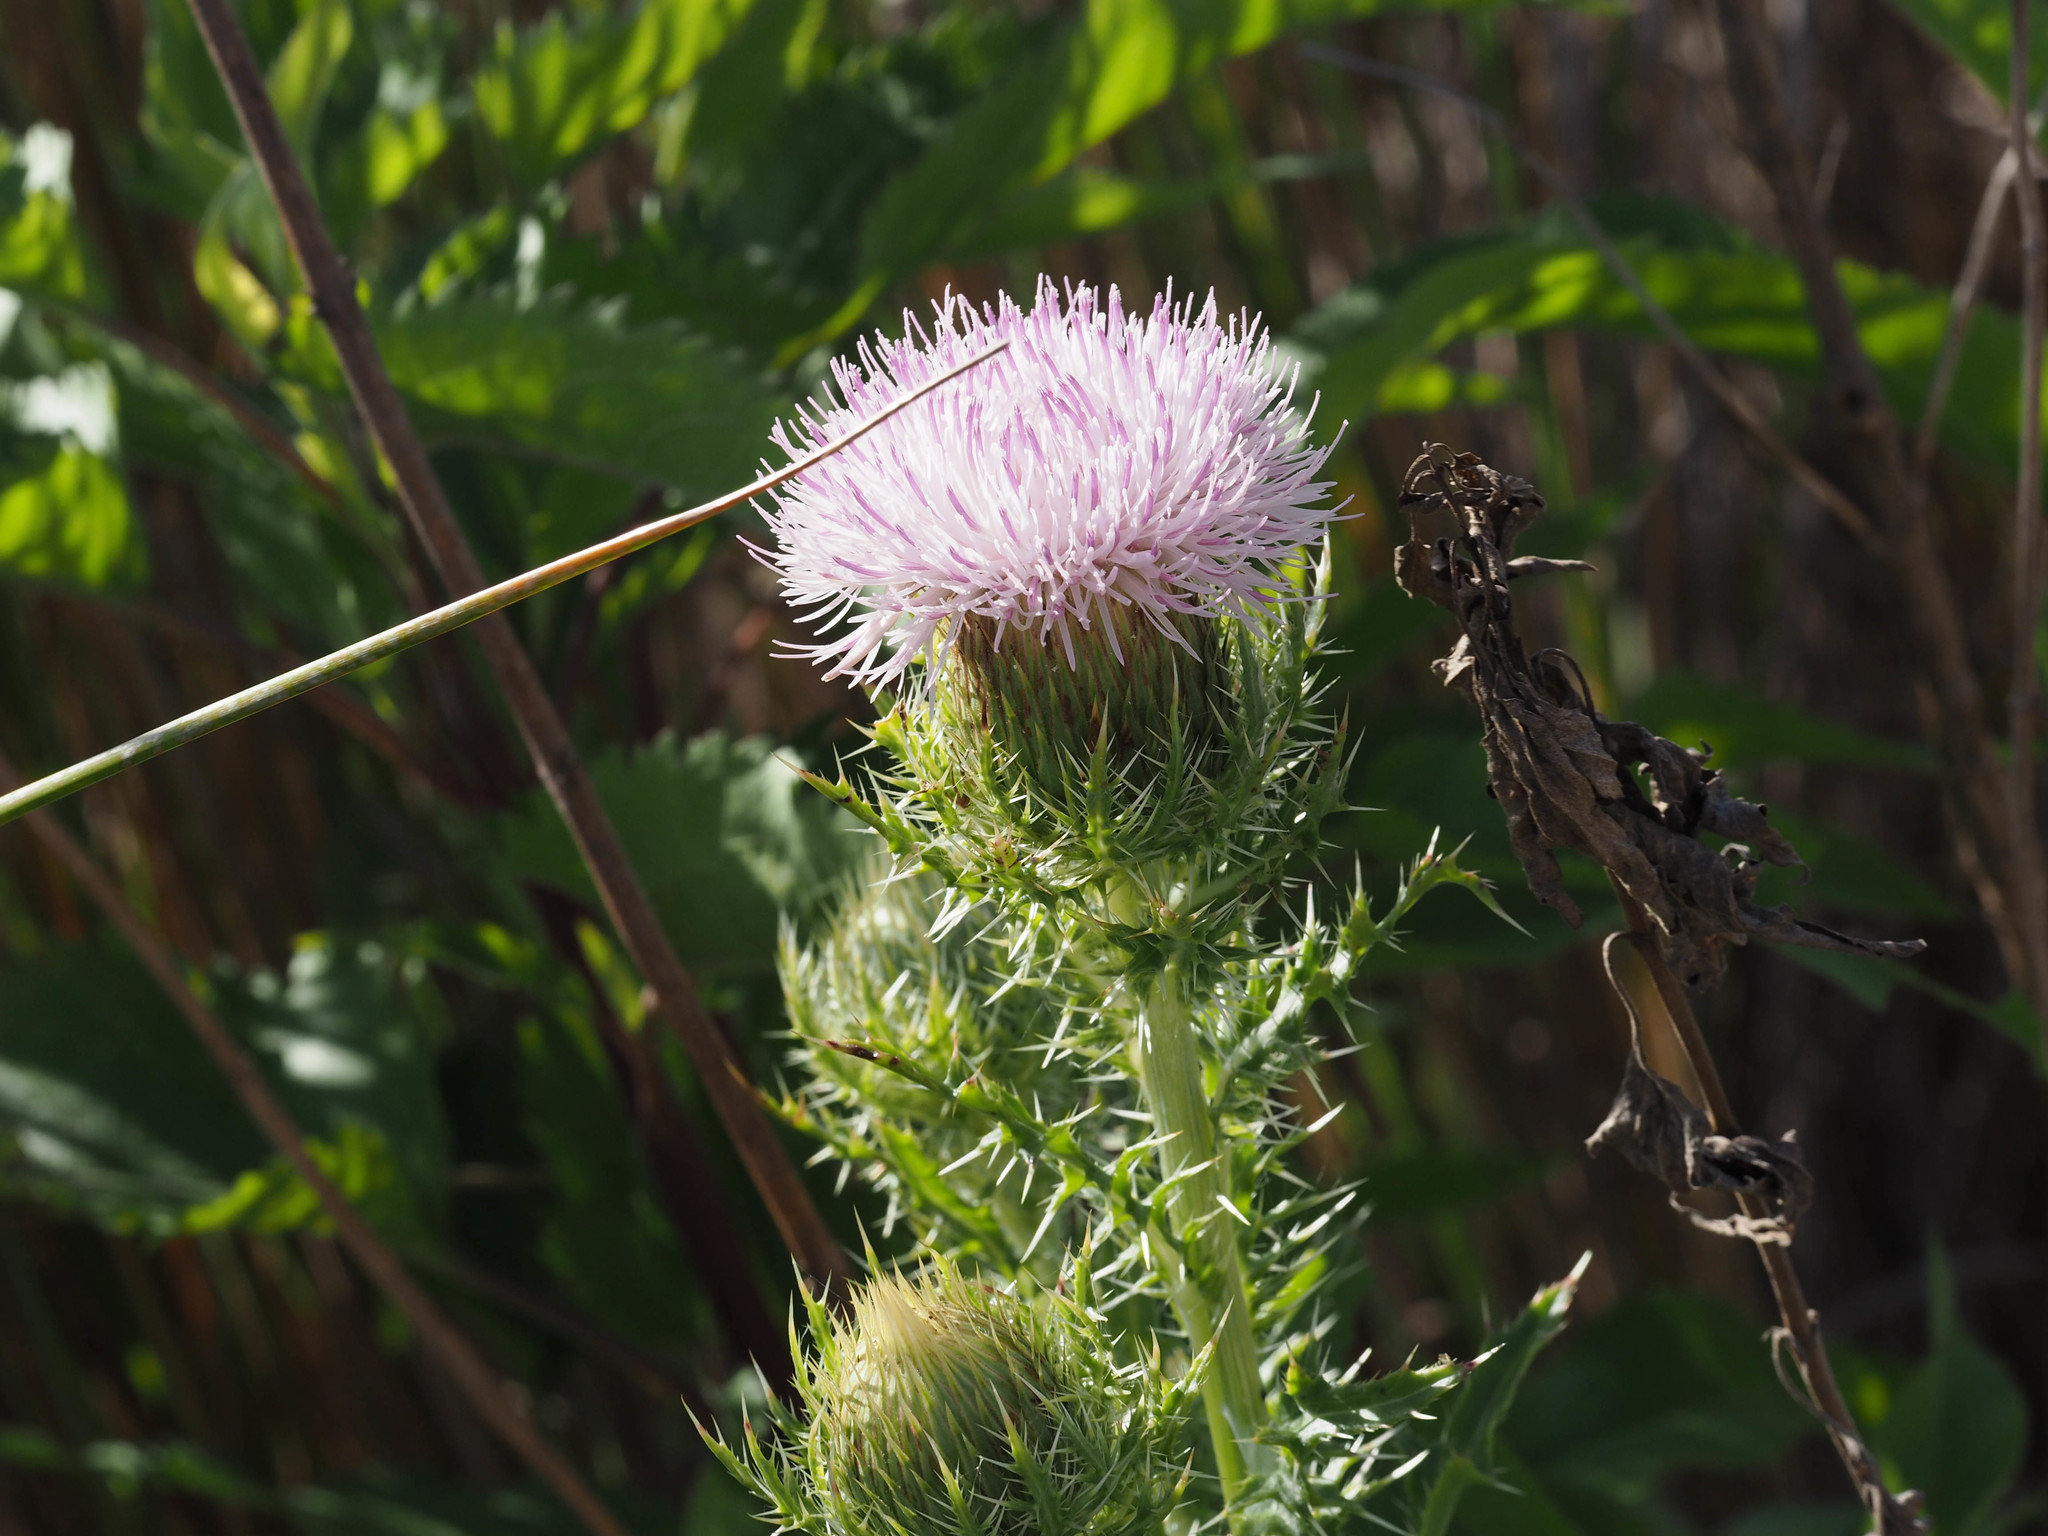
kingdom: Plantae
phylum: Tracheophyta
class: Magnoliopsida
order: Asterales
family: Asteraceae
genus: Cirsium
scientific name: Cirsium horridulum
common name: Bristly thistle
